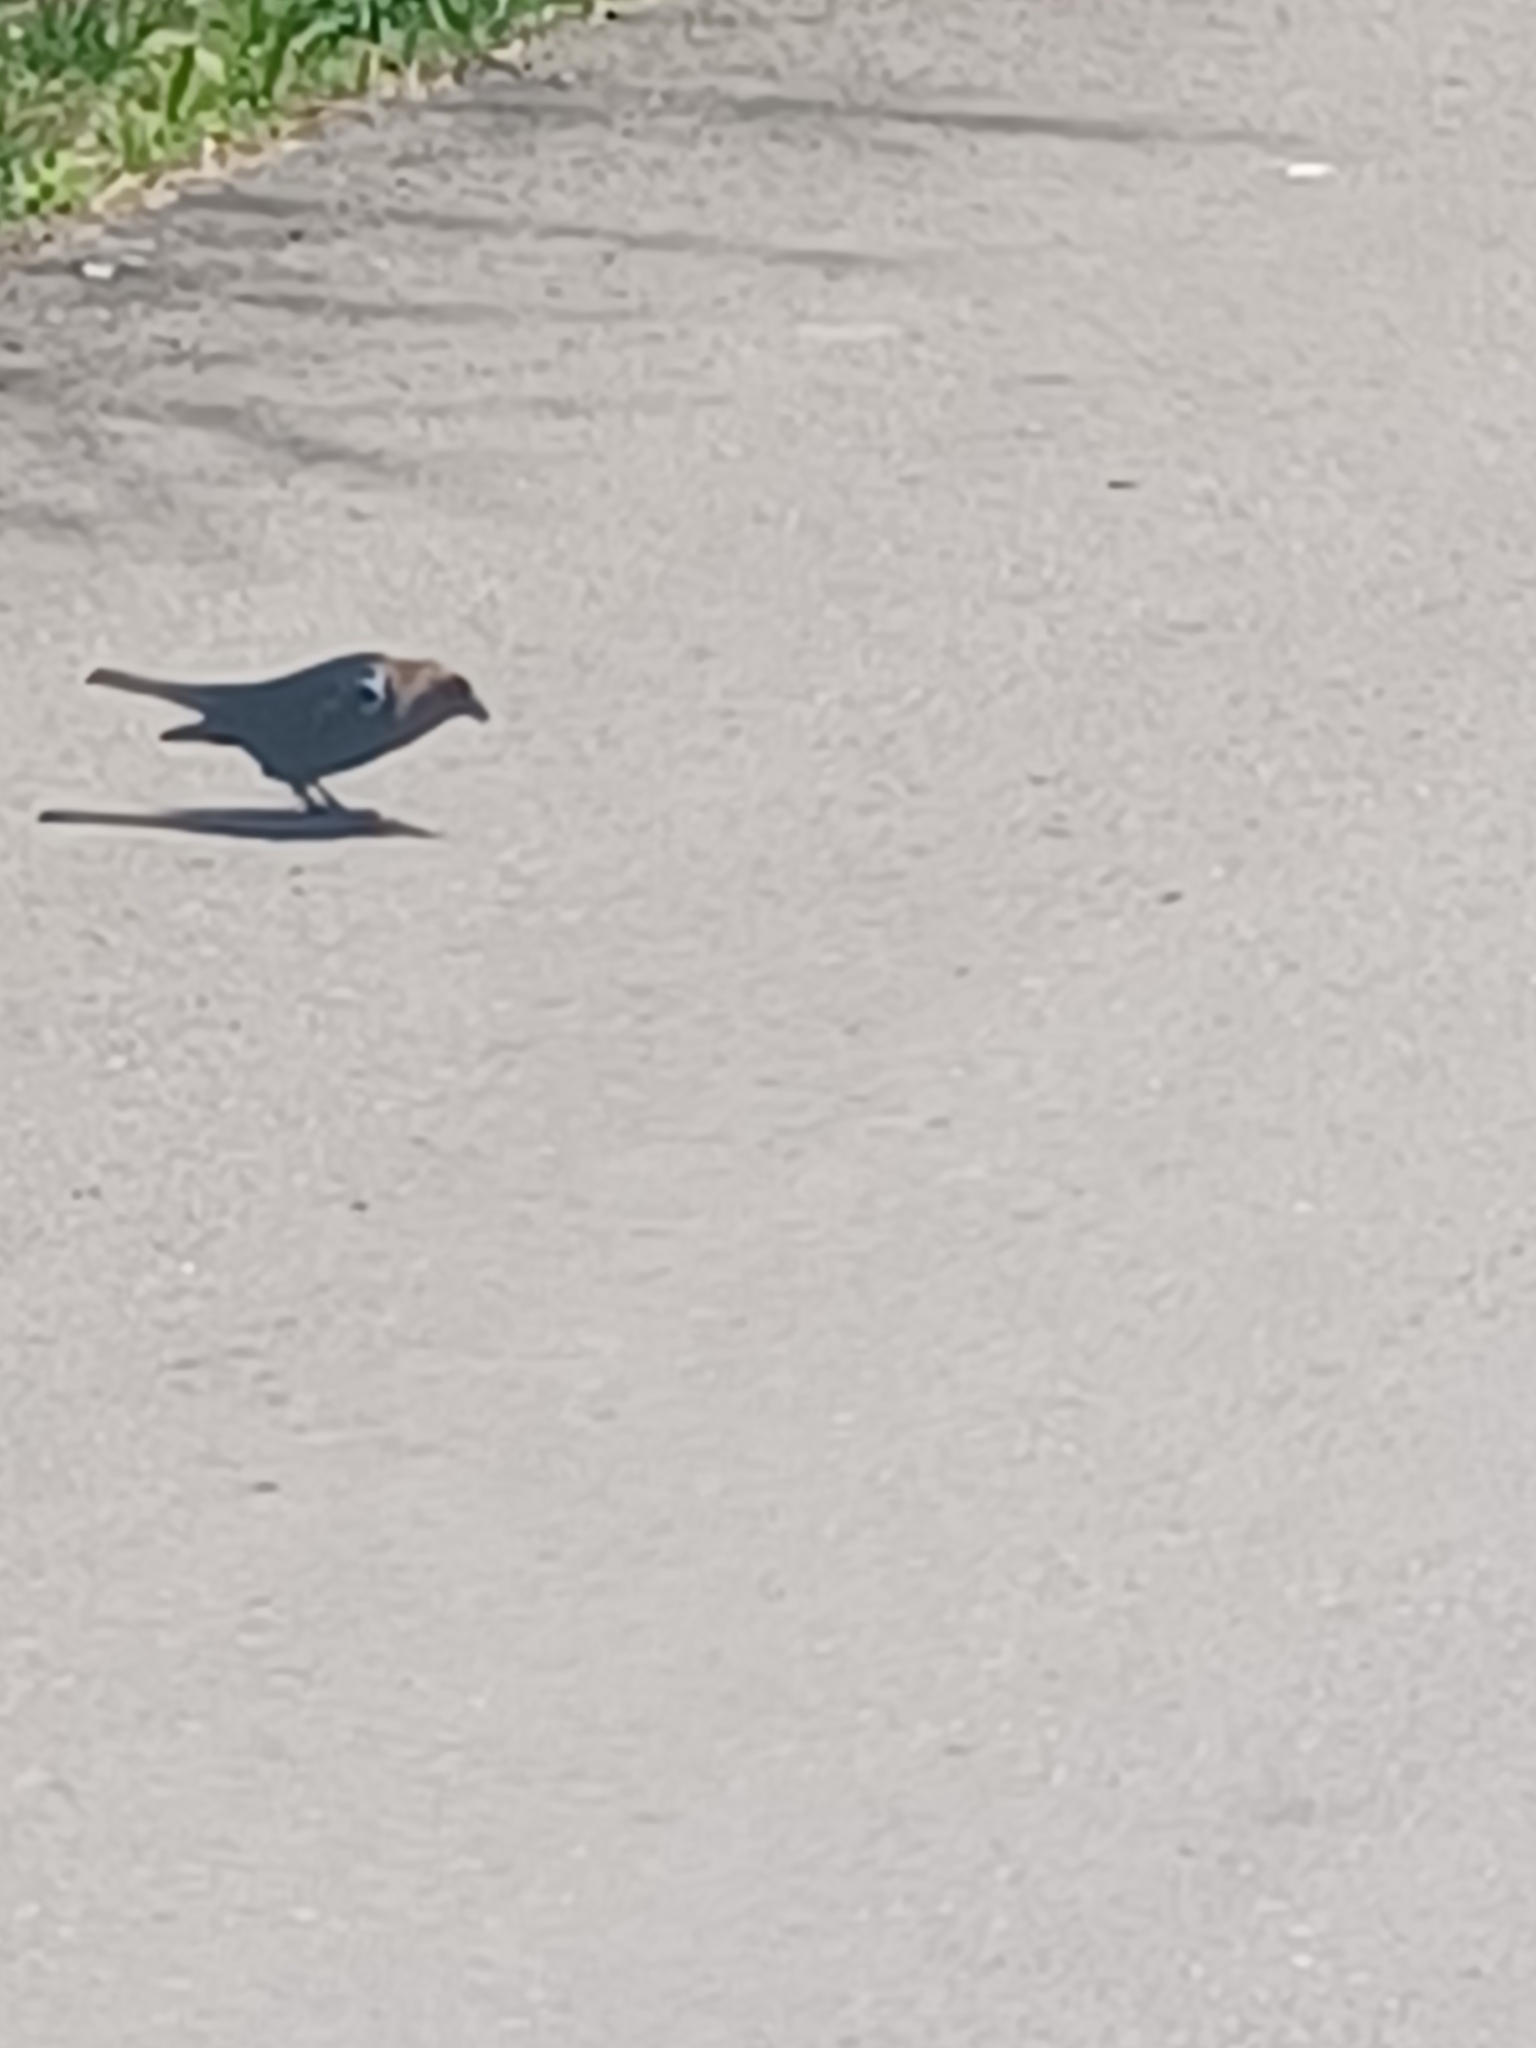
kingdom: Animalia
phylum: Chordata
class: Aves
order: Passeriformes
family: Icteridae
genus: Molothrus
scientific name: Molothrus ater
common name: Brown-headed cowbird
